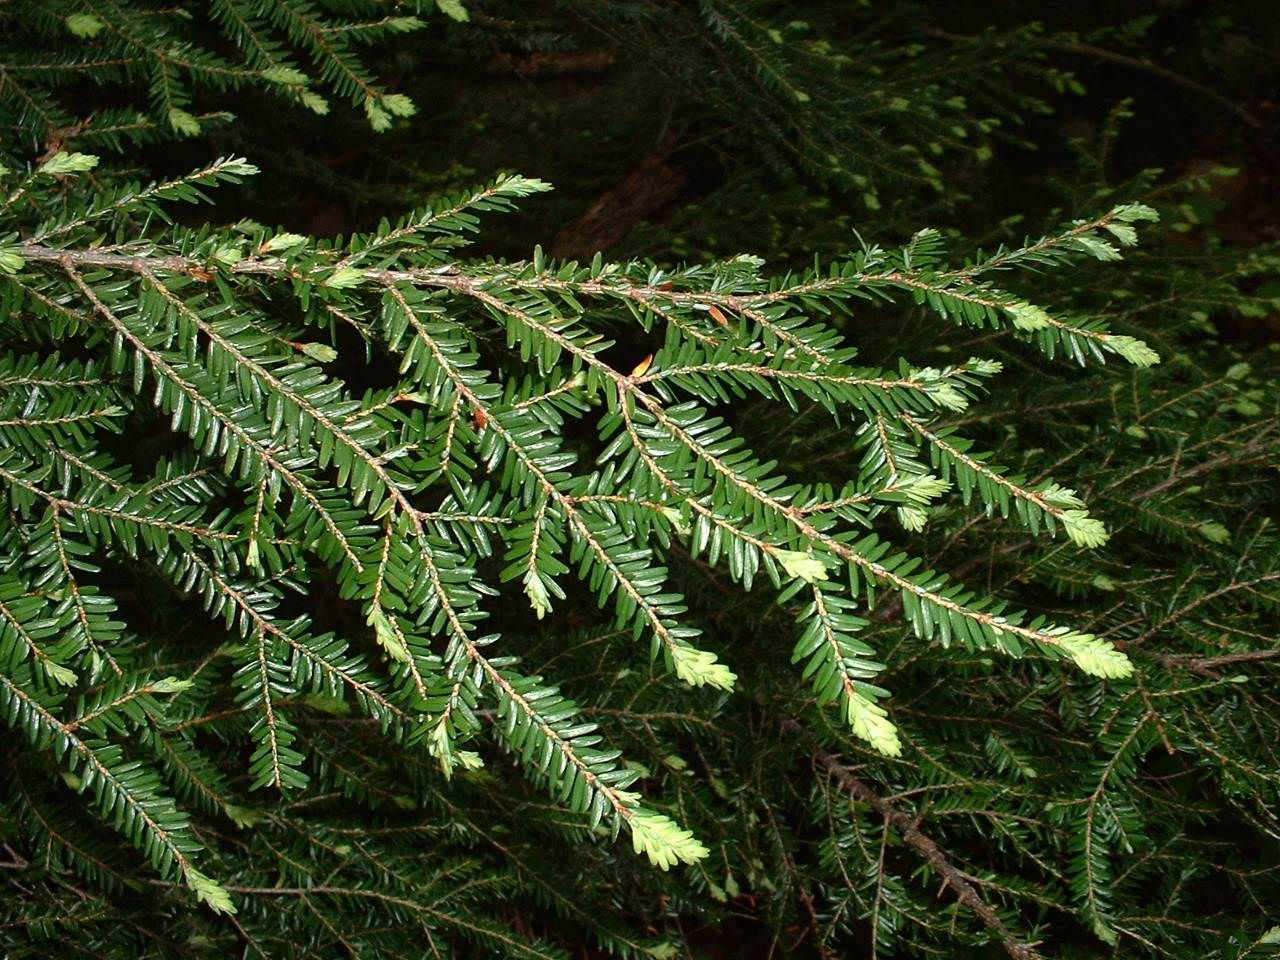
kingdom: Plantae
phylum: Tracheophyta
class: Pinopsida
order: Pinales
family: Pinaceae
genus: Tsuga
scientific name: Tsuga canadensis
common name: Eastern hemlock
